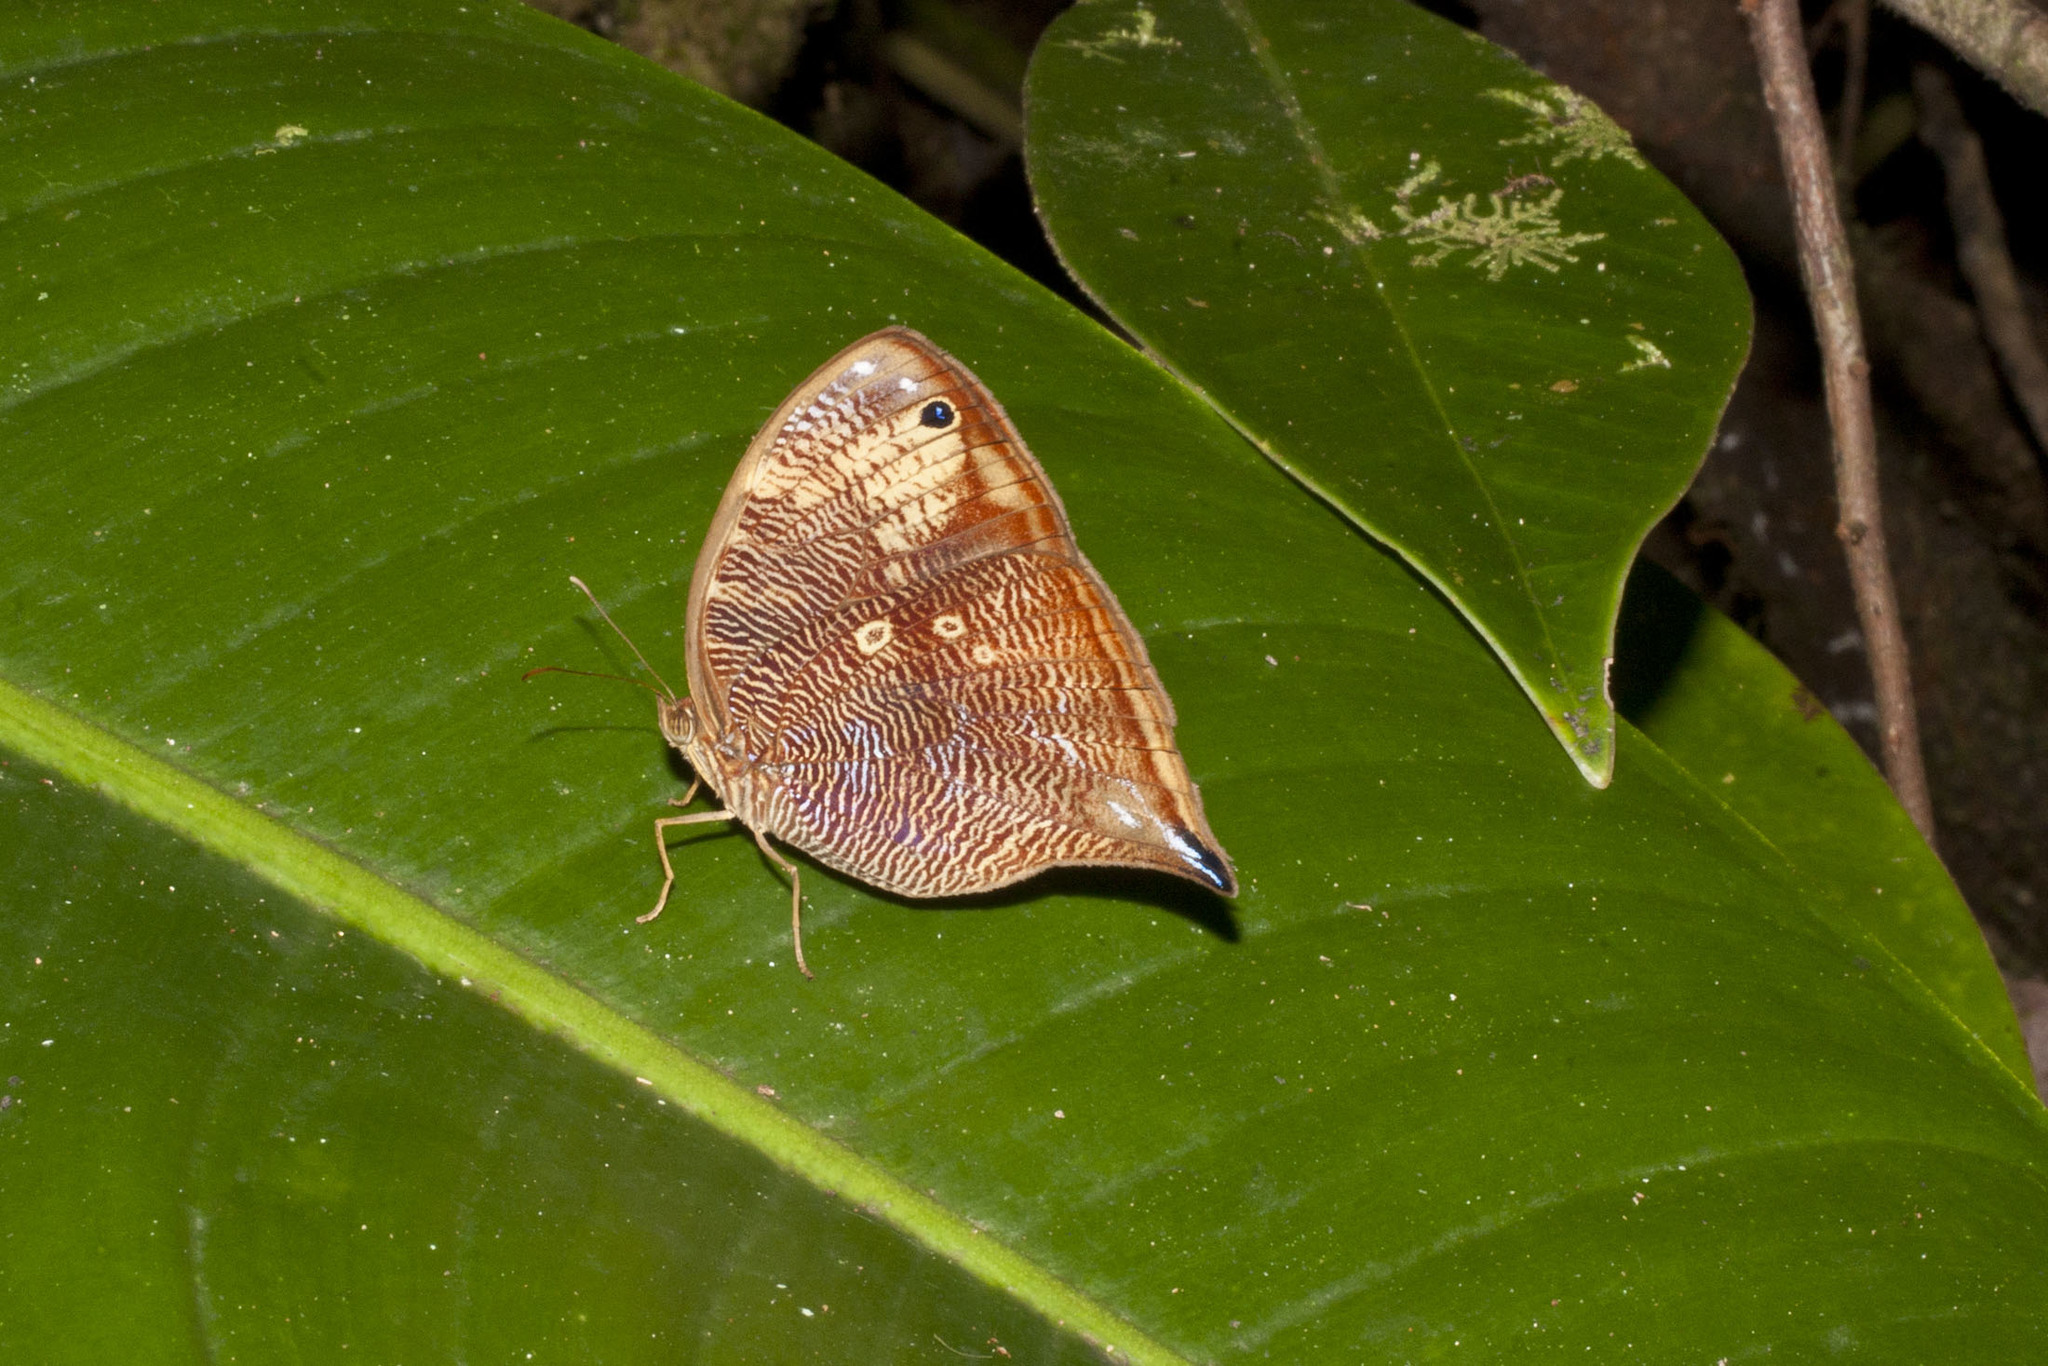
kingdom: Animalia
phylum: Arthropoda
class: Insecta
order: Lepidoptera
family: Nymphalidae
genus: Bia
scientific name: Bia actorion
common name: Uncertain owlet
